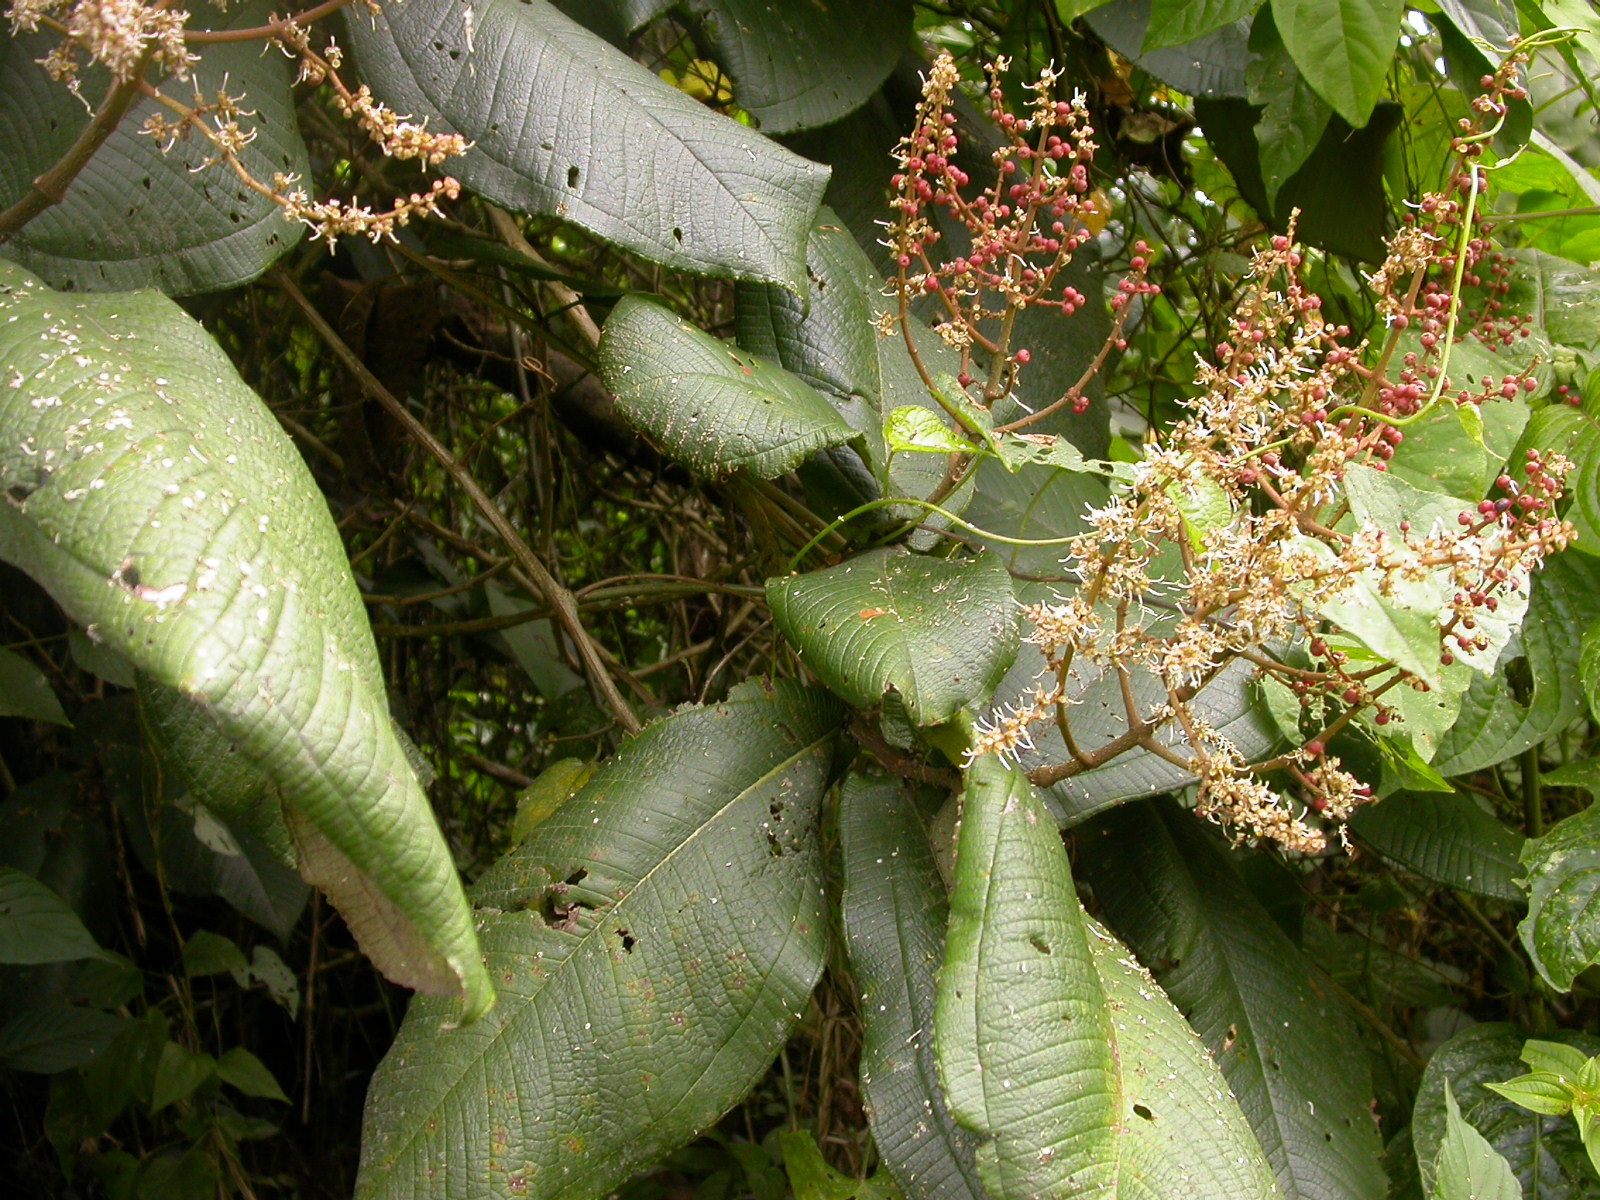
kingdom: Plantae
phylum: Tracheophyta
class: Magnoliopsida
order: Myrtales
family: Melastomataceae
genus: Miconia
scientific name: Miconia impetiolaris
